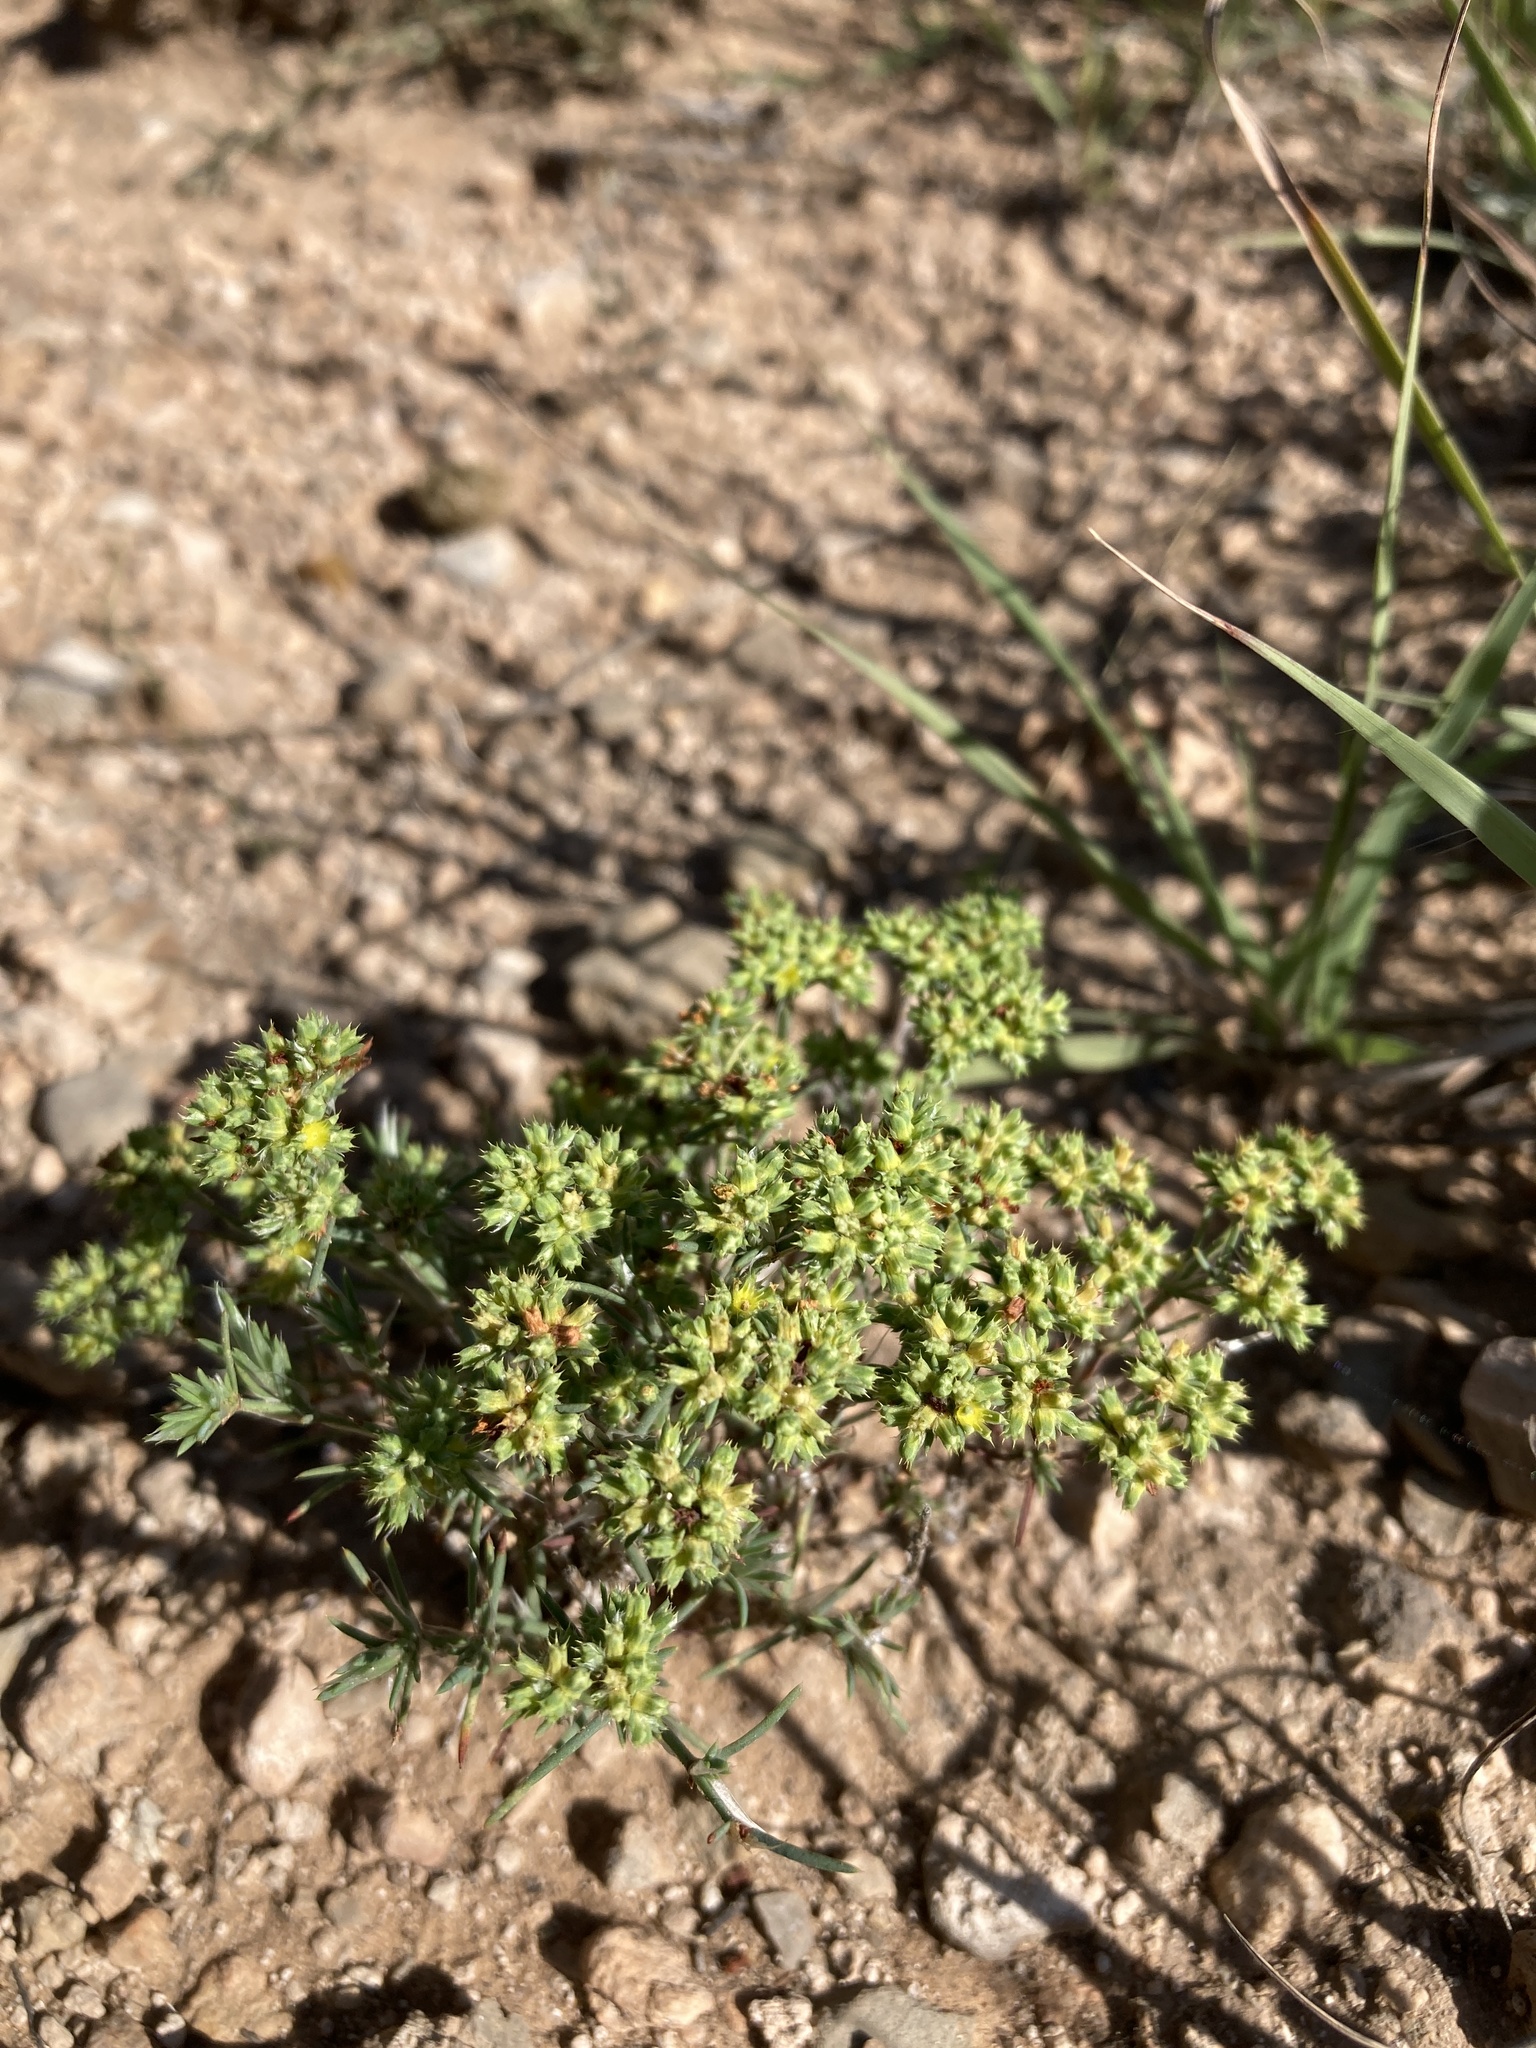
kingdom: Plantae
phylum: Tracheophyta
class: Magnoliopsida
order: Caryophyllales
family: Caryophyllaceae
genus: Paronychia
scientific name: Paronychia jamesii
